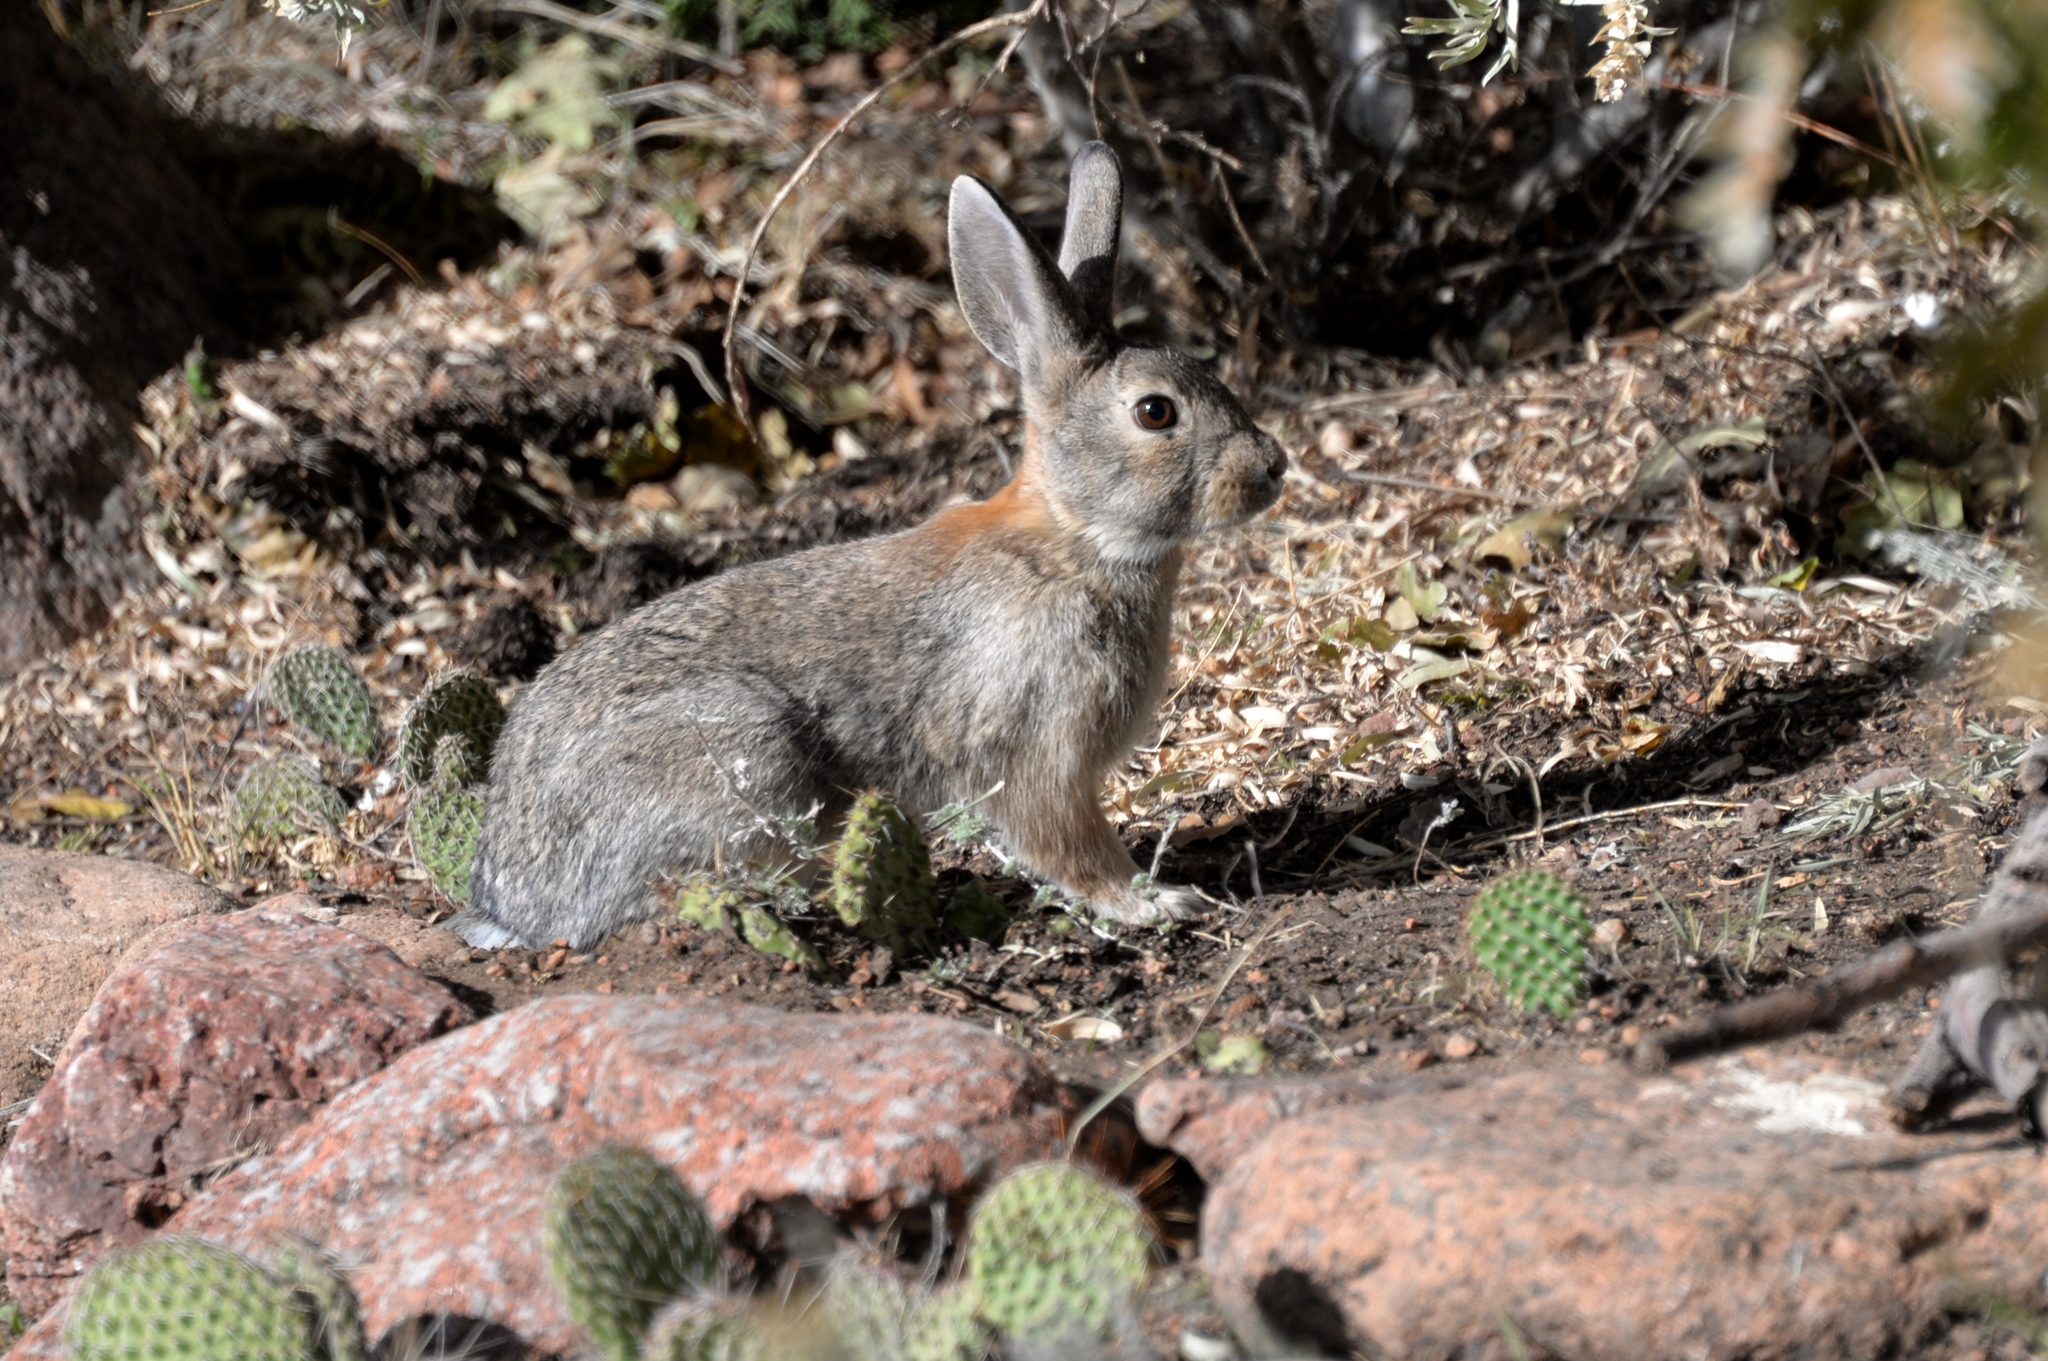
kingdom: Animalia
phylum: Chordata
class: Mammalia
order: Lagomorpha
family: Leporidae
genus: Sylvilagus
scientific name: Sylvilagus nuttallii
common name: Mountain cottontail
